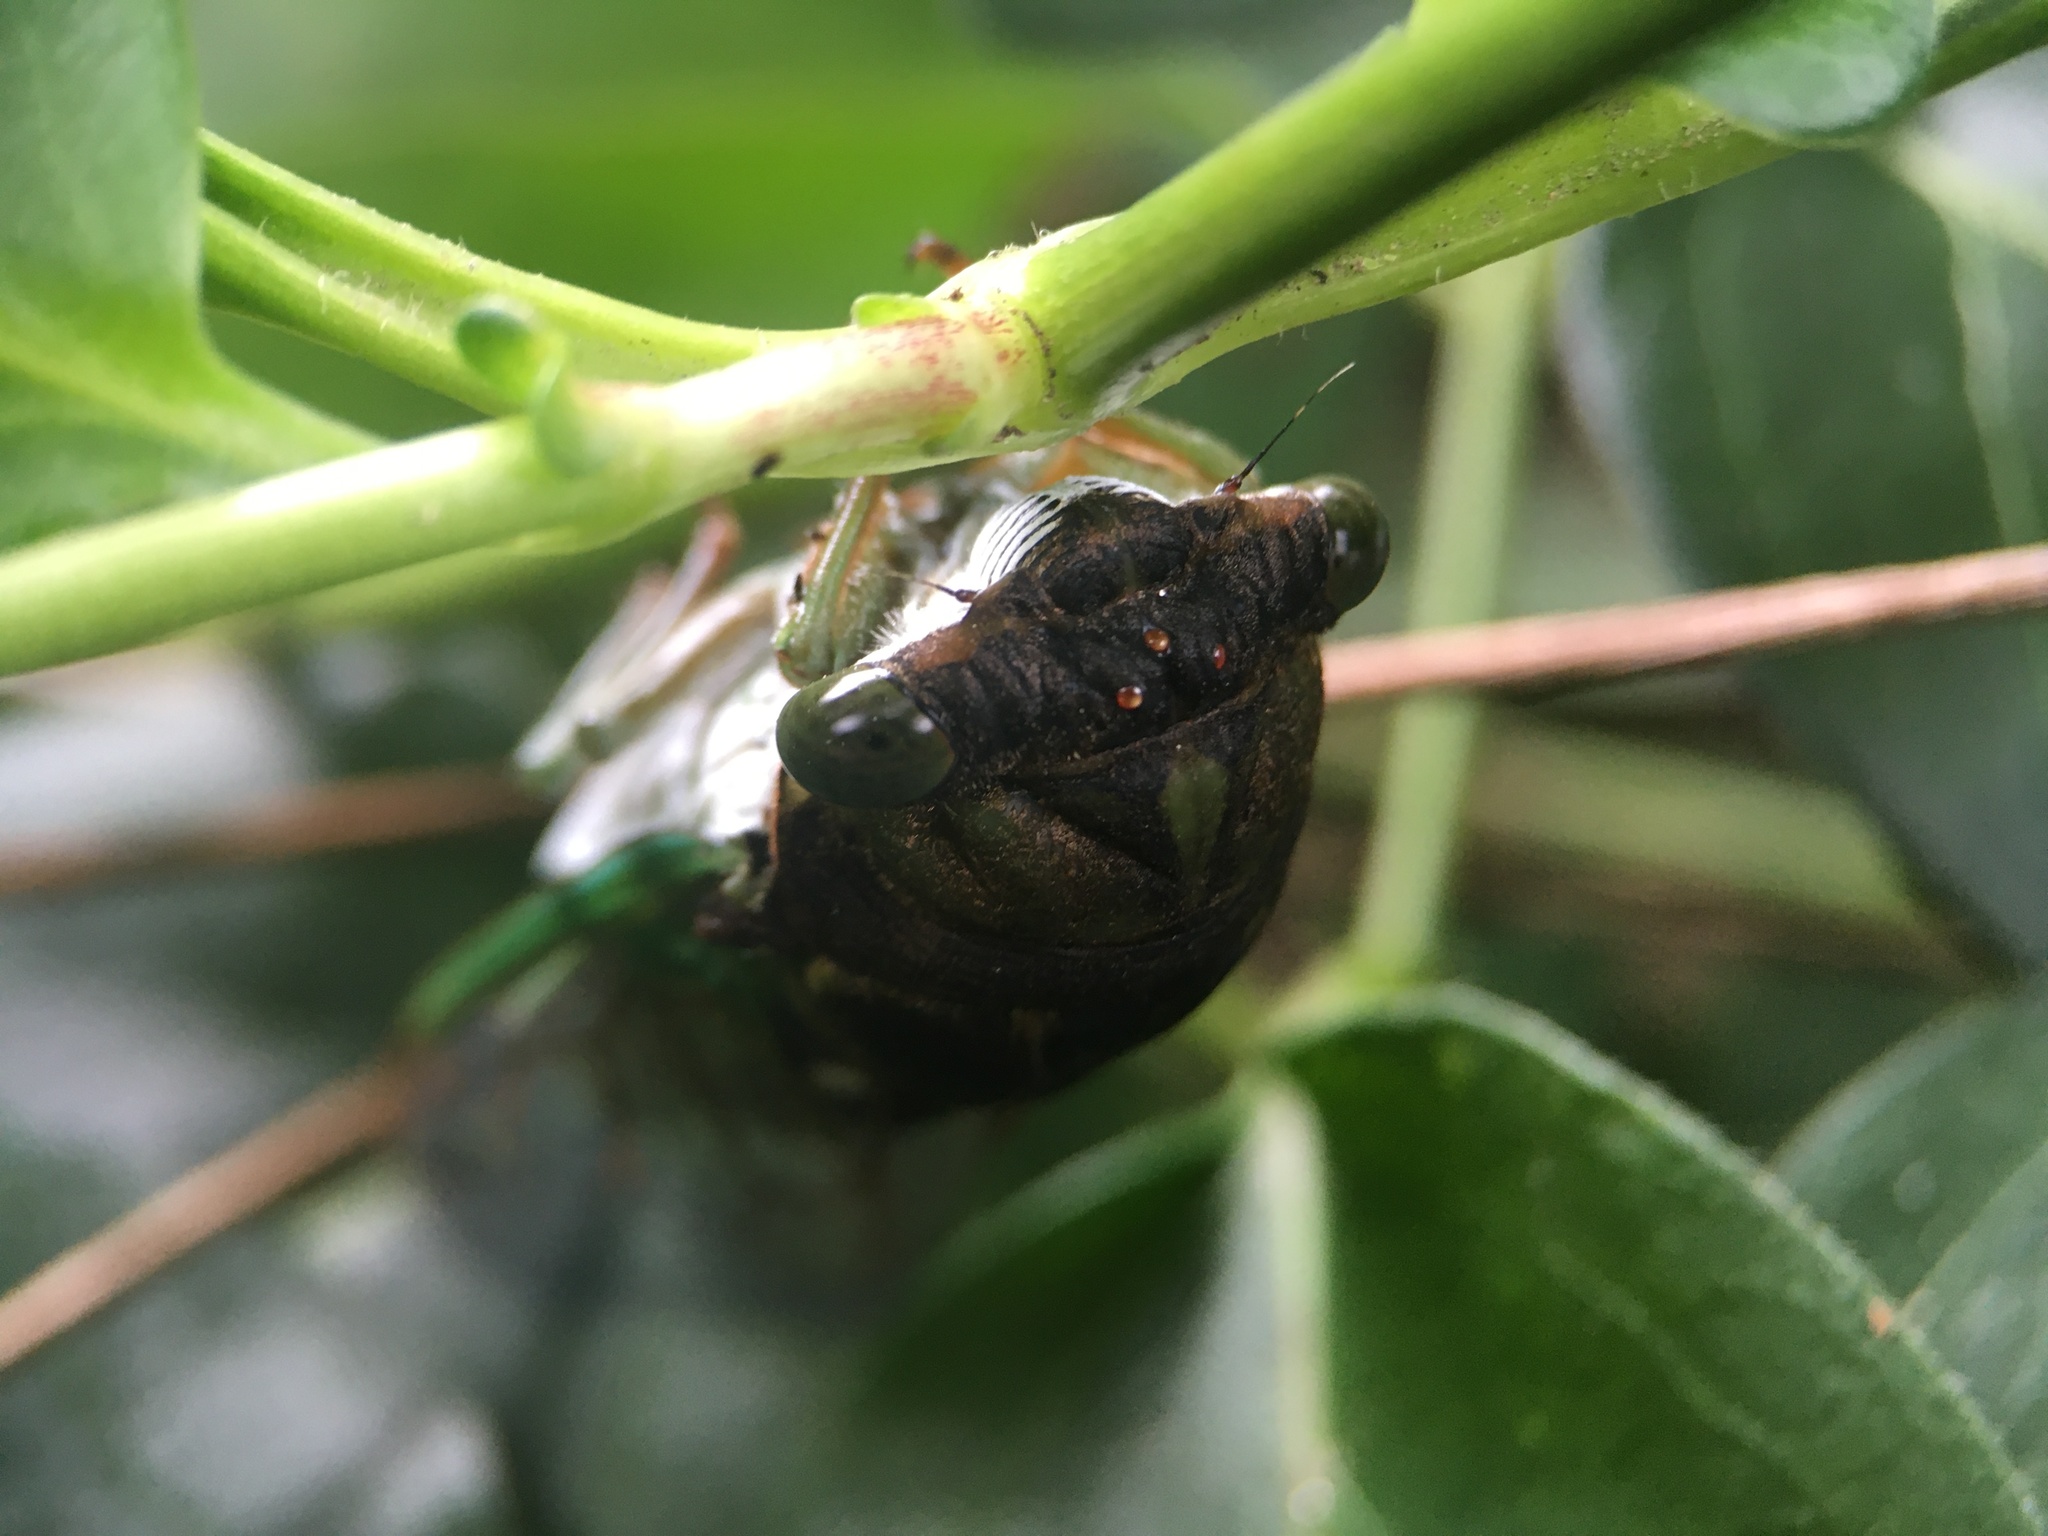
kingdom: Animalia
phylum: Arthropoda
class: Insecta
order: Hemiptera
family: Cicadidae
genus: Neotibicen
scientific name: Neotibicen tibicen
